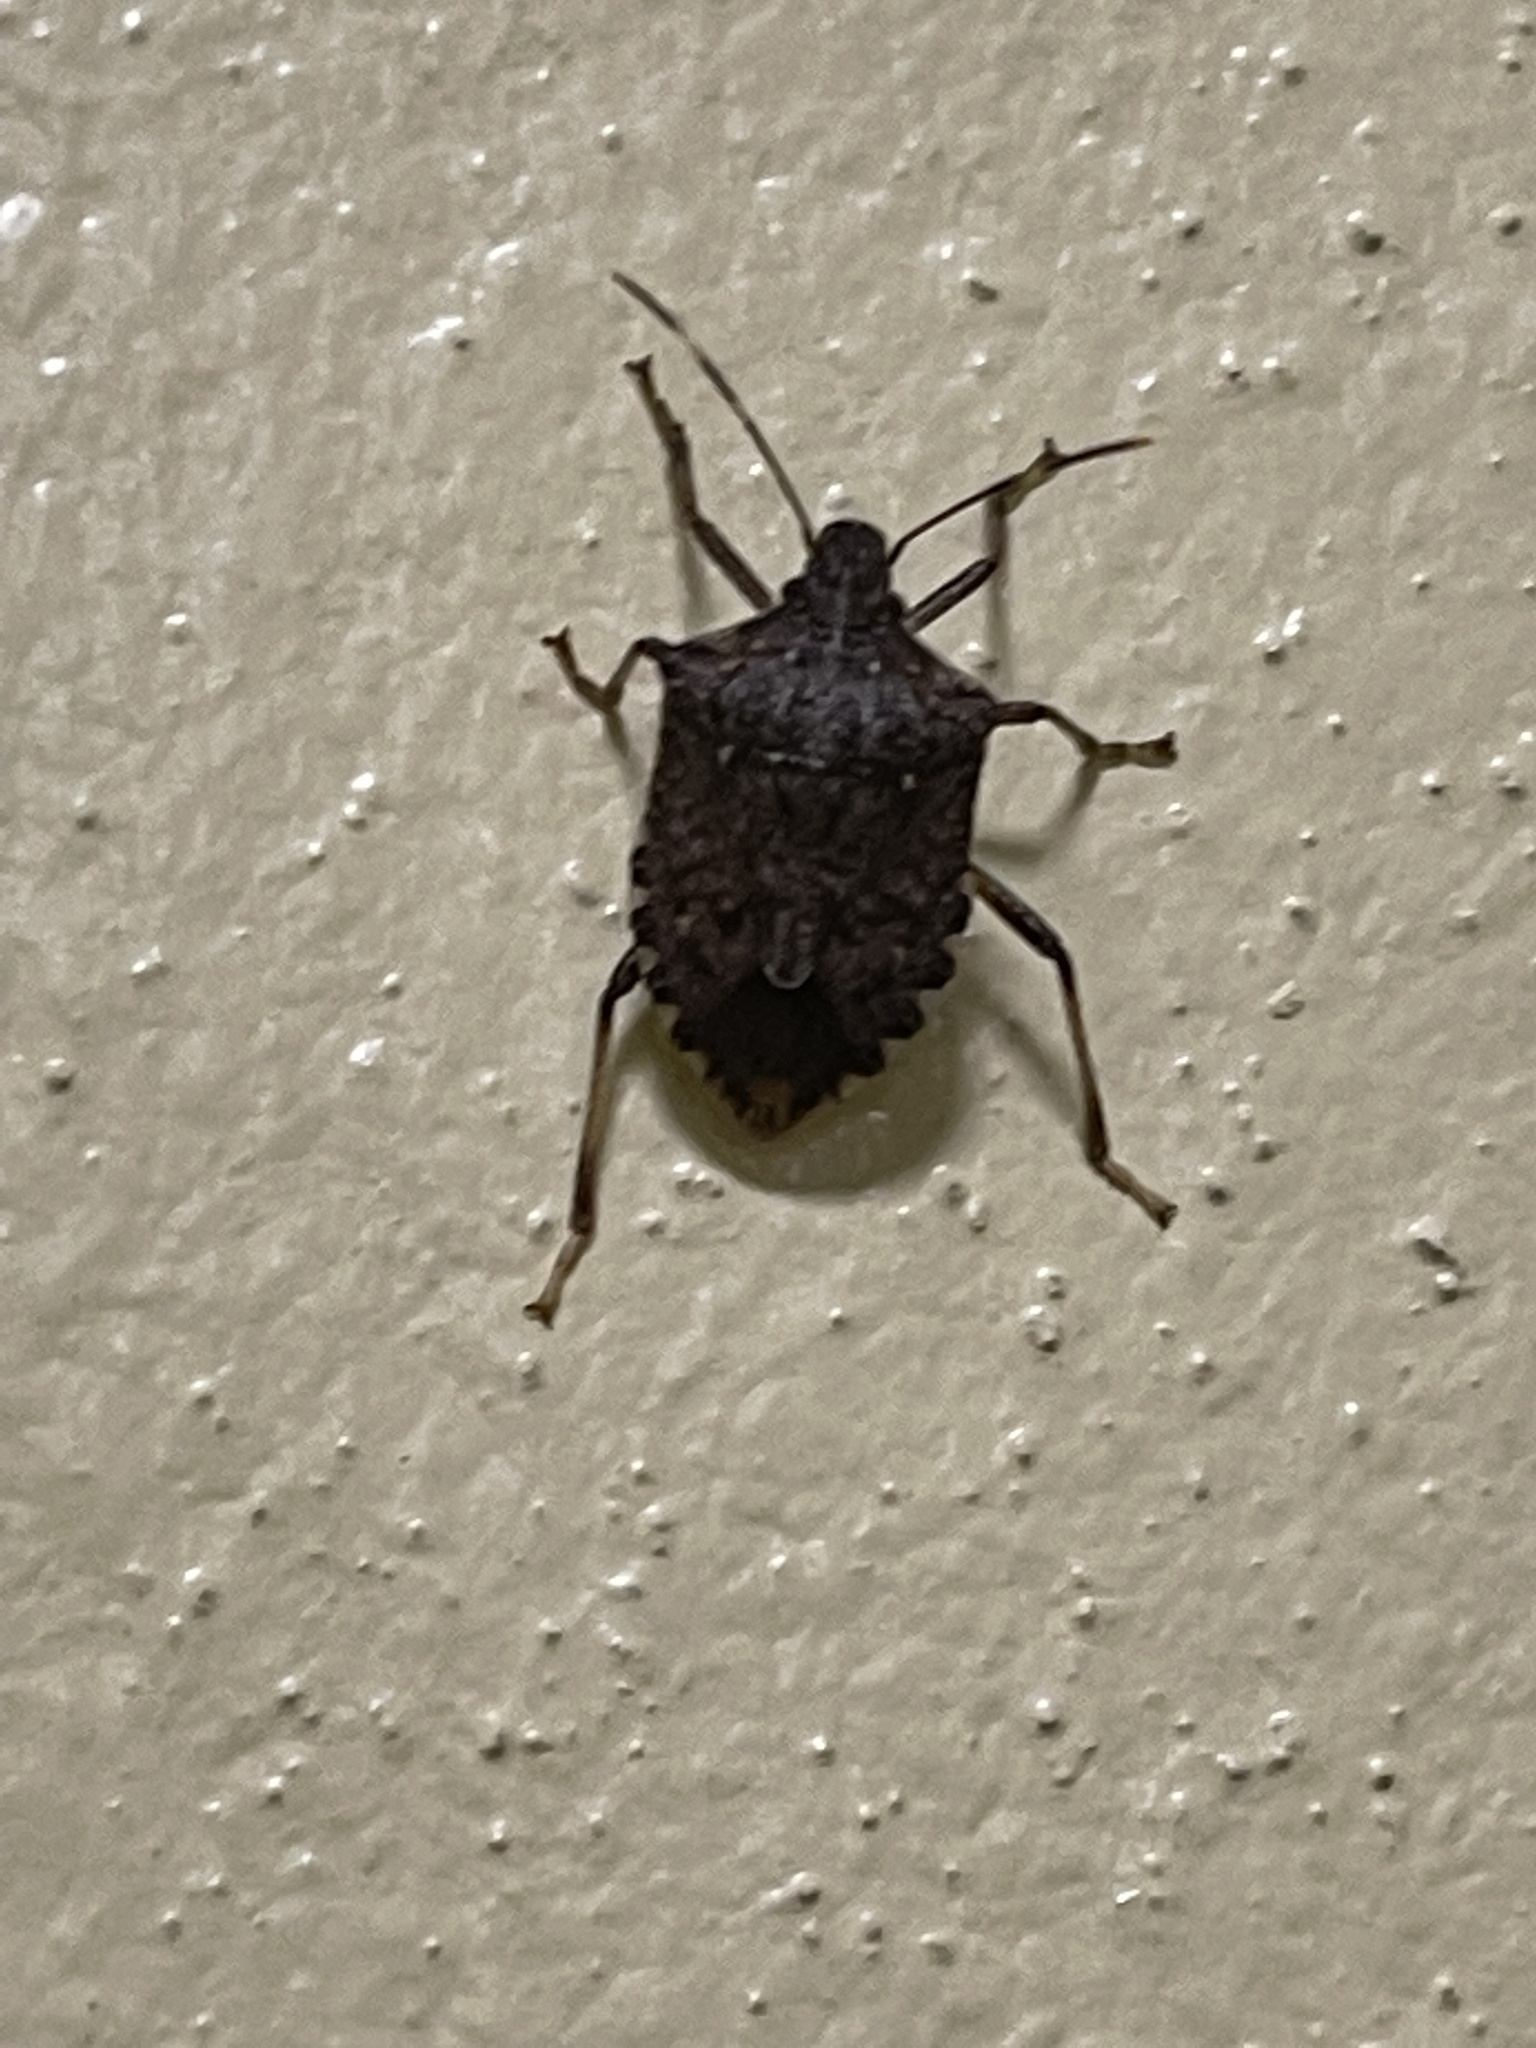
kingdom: Animalia
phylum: Arthropoda
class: Insecta
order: Hemiptera
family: Pentatomidae
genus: Halyomorpha
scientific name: Halyomorpha halys
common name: Brown marmorated stink bug
